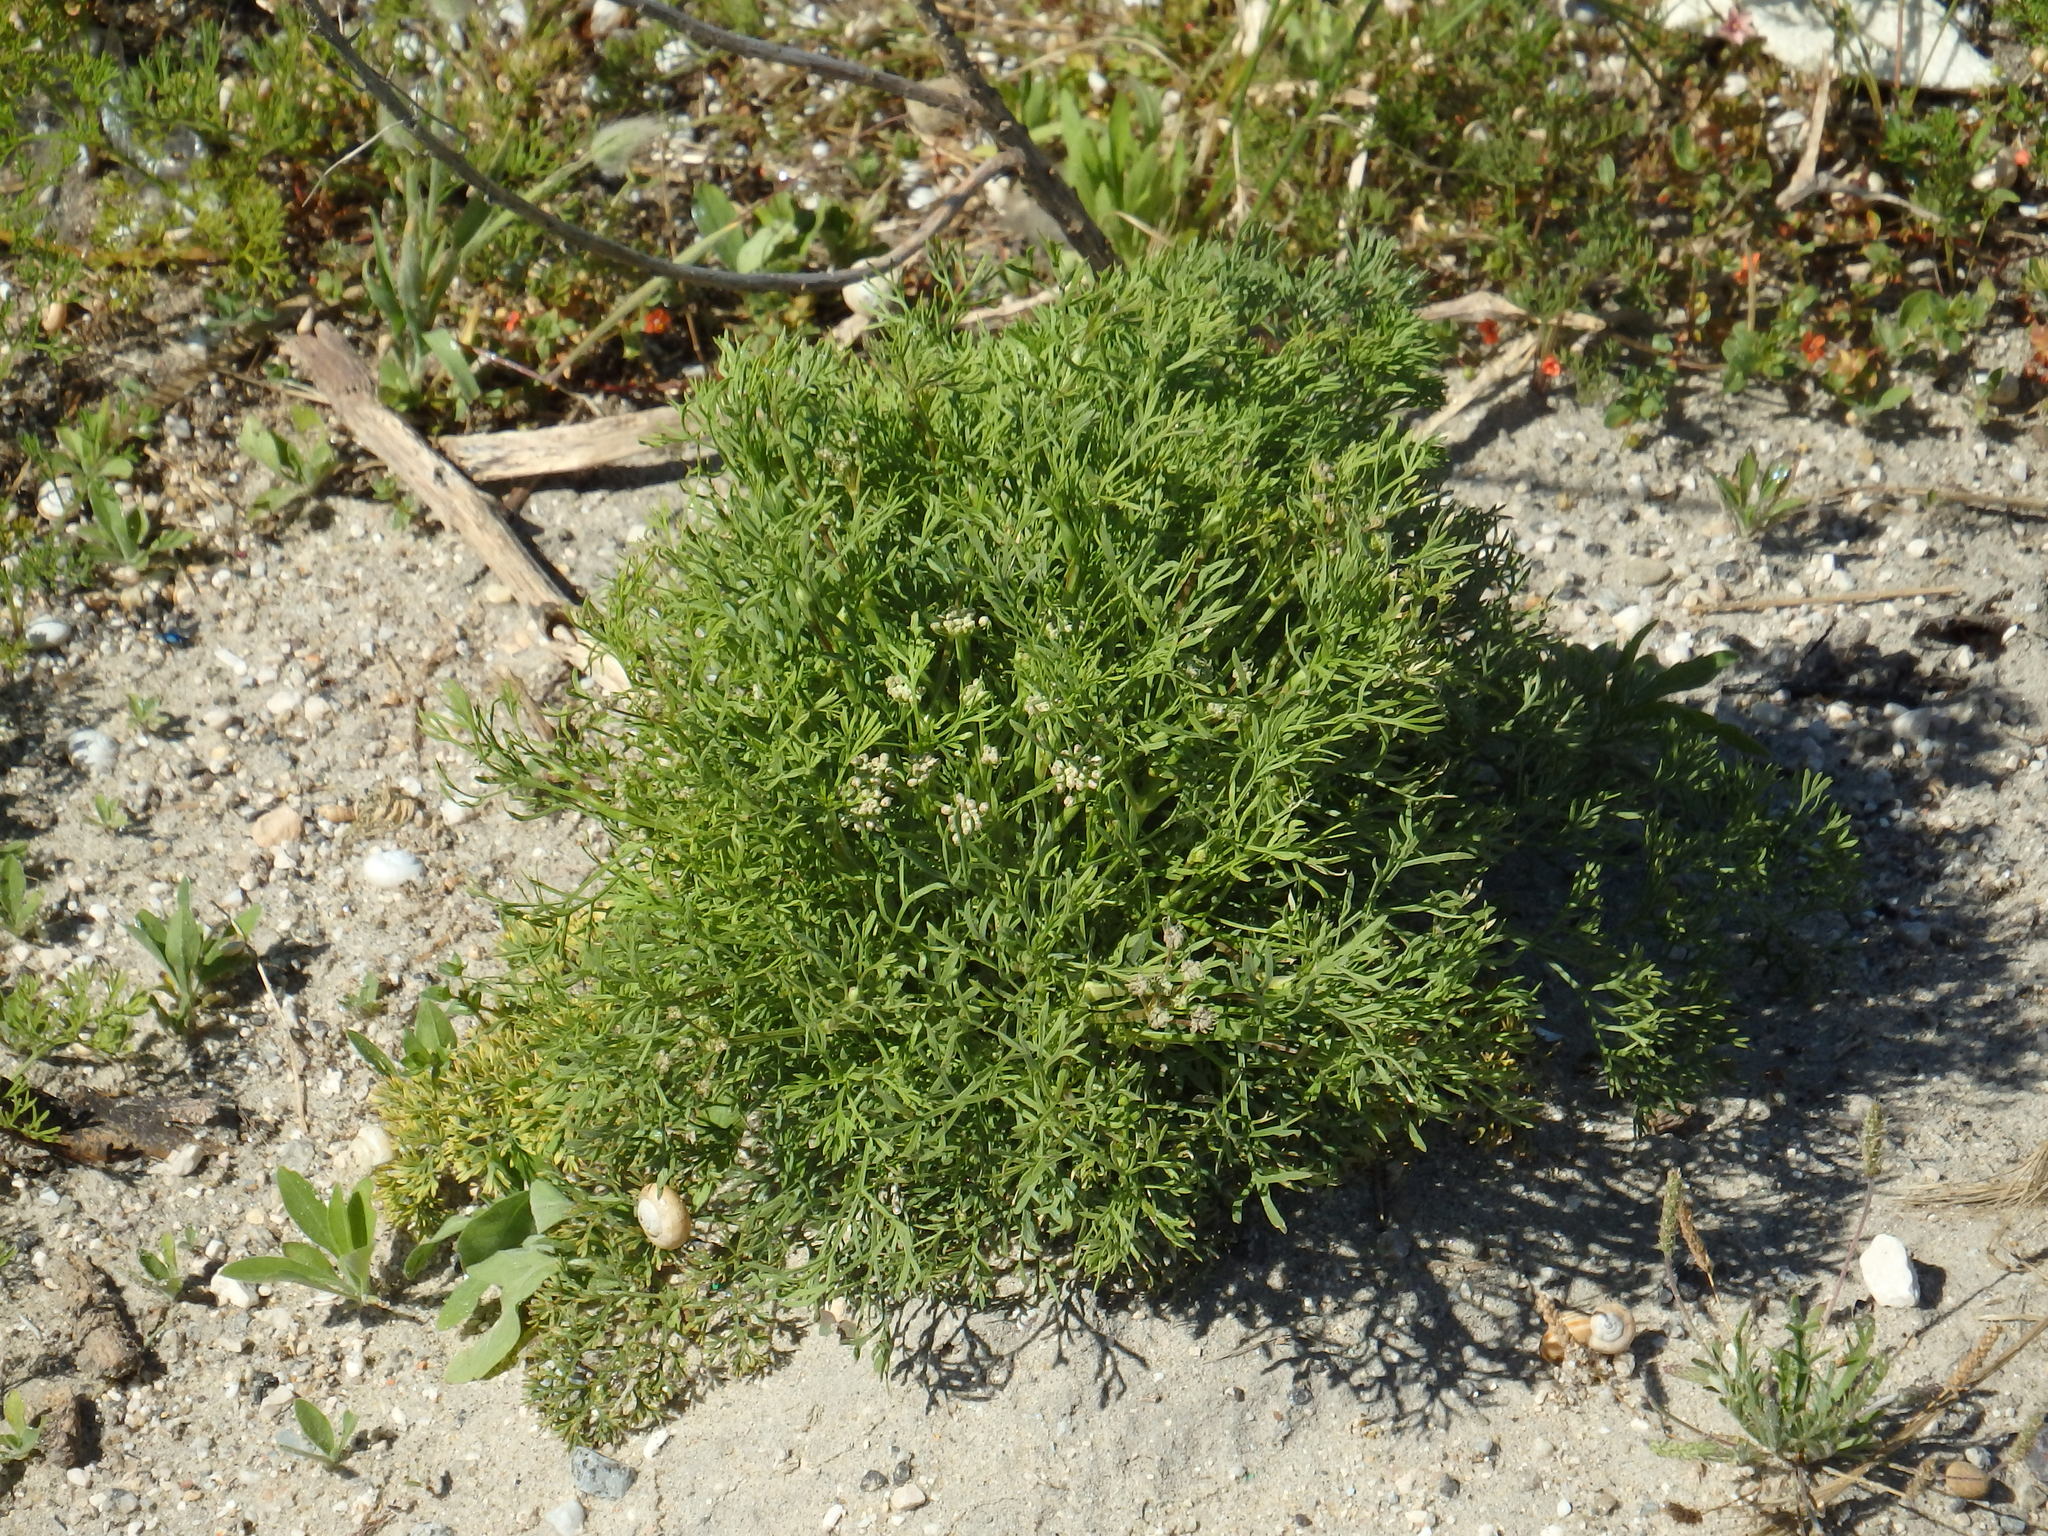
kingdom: Plantae
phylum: Tracheophyta
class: Magnoliopsida
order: Apiales
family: Apiaceae
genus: Seseli
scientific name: Seseli tortuosum
